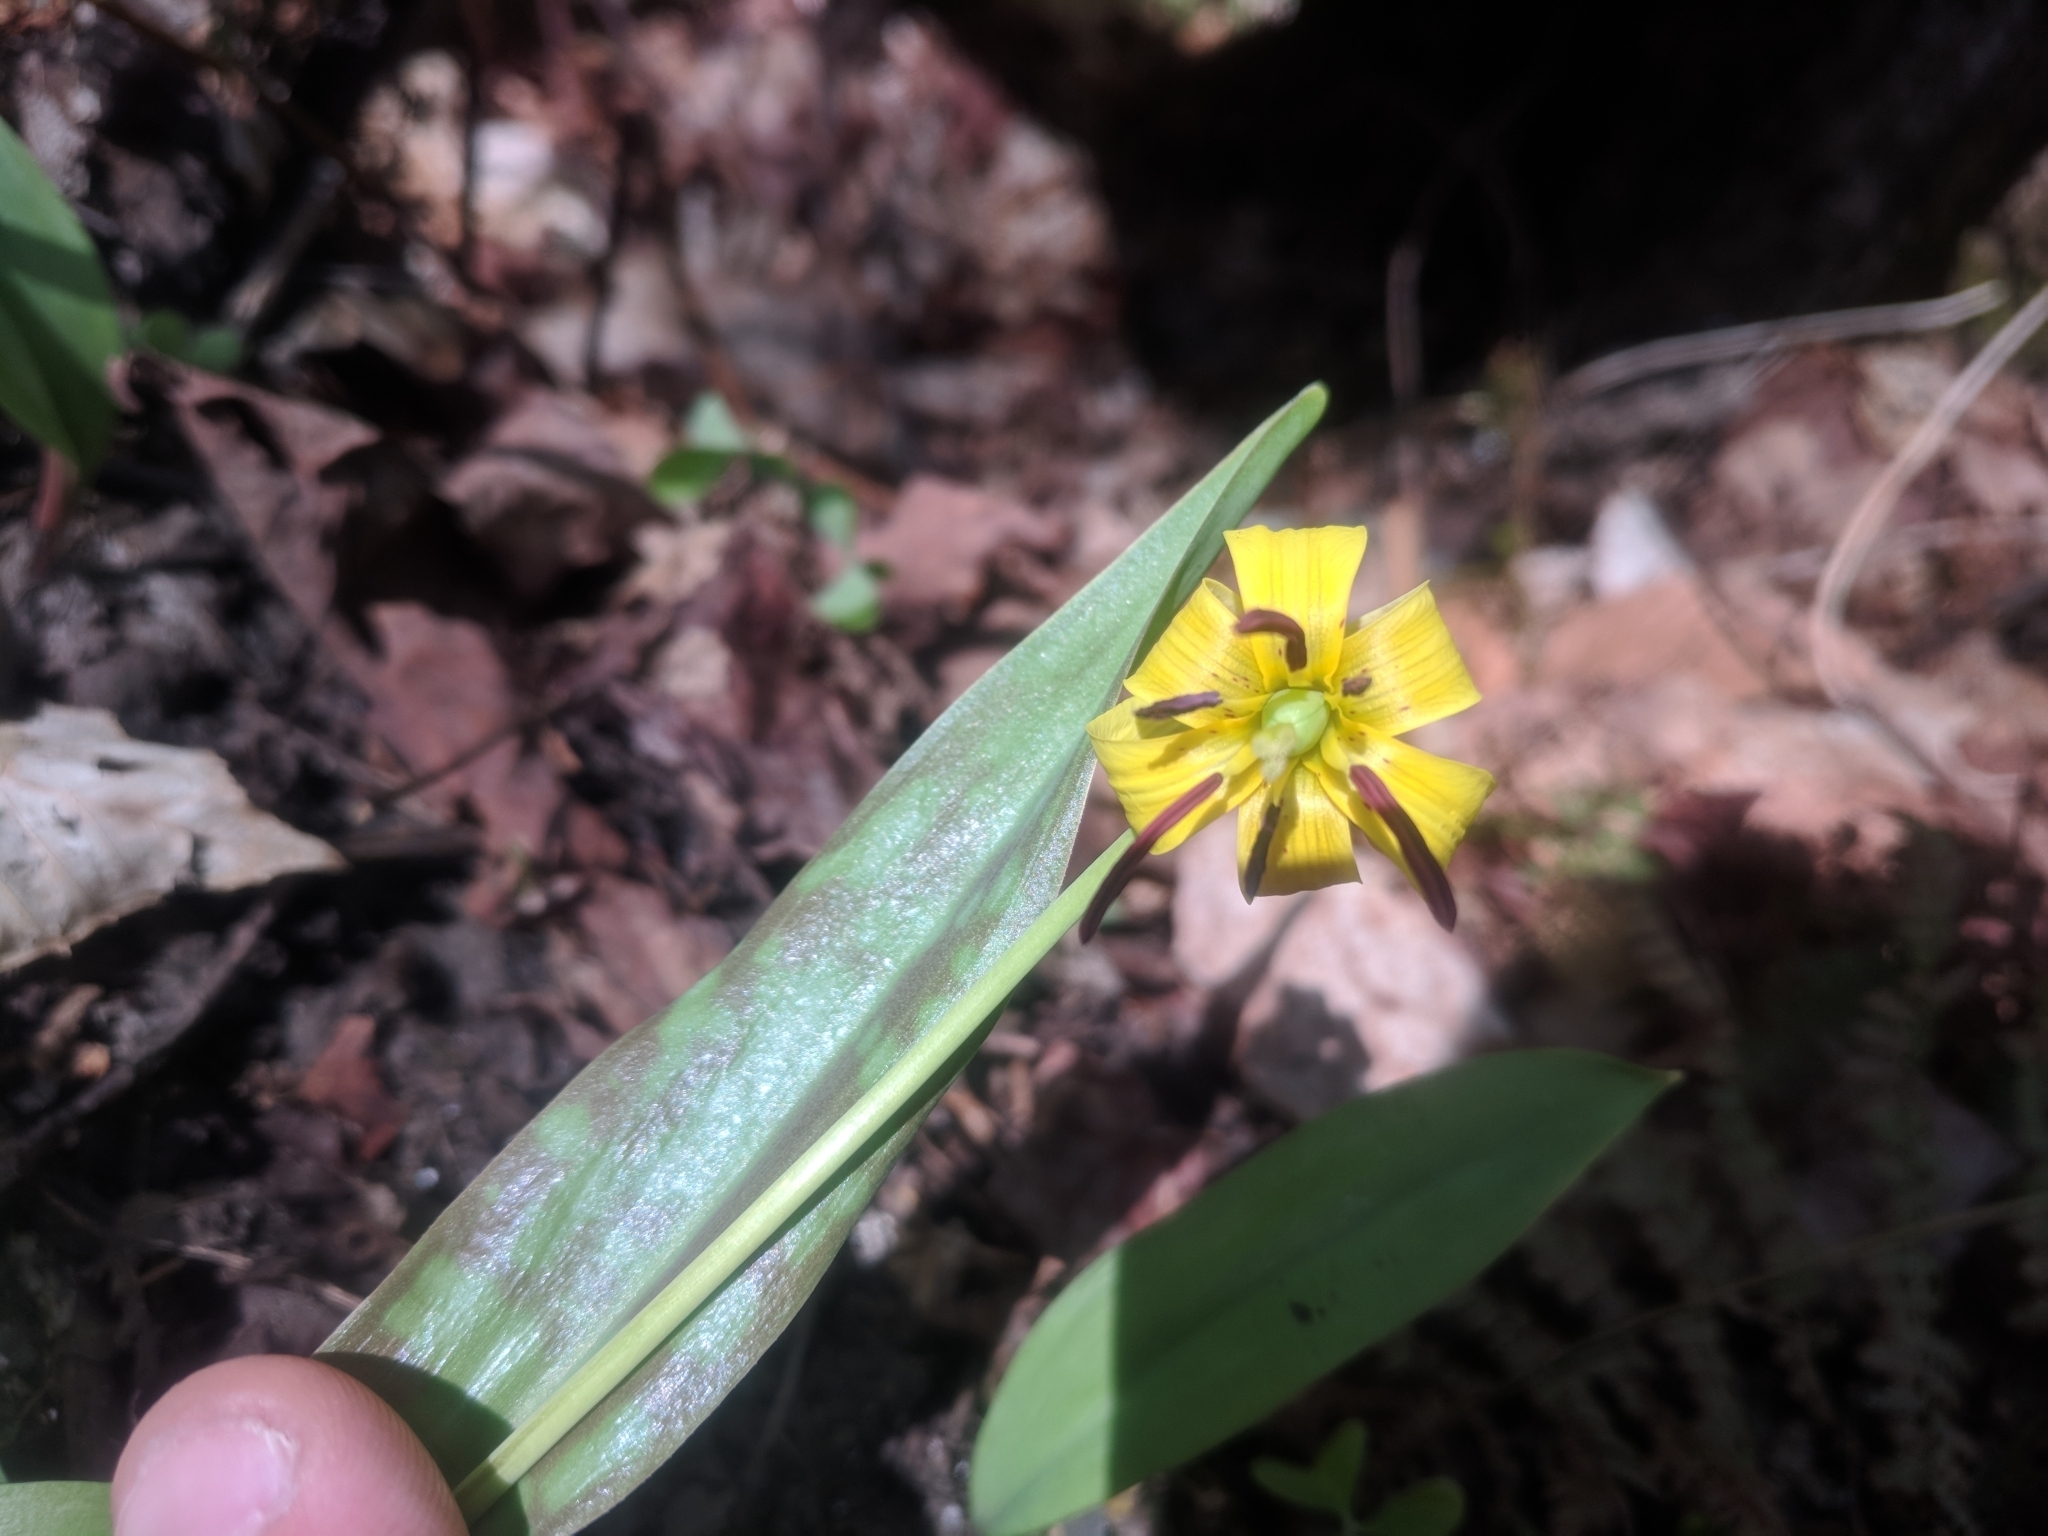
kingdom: Plantae
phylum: Tracheophyta
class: Liliopsida
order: Liliales
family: Liliaceae
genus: Erythronium
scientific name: Erythronium americanum
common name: Yellow adder's-tongue
